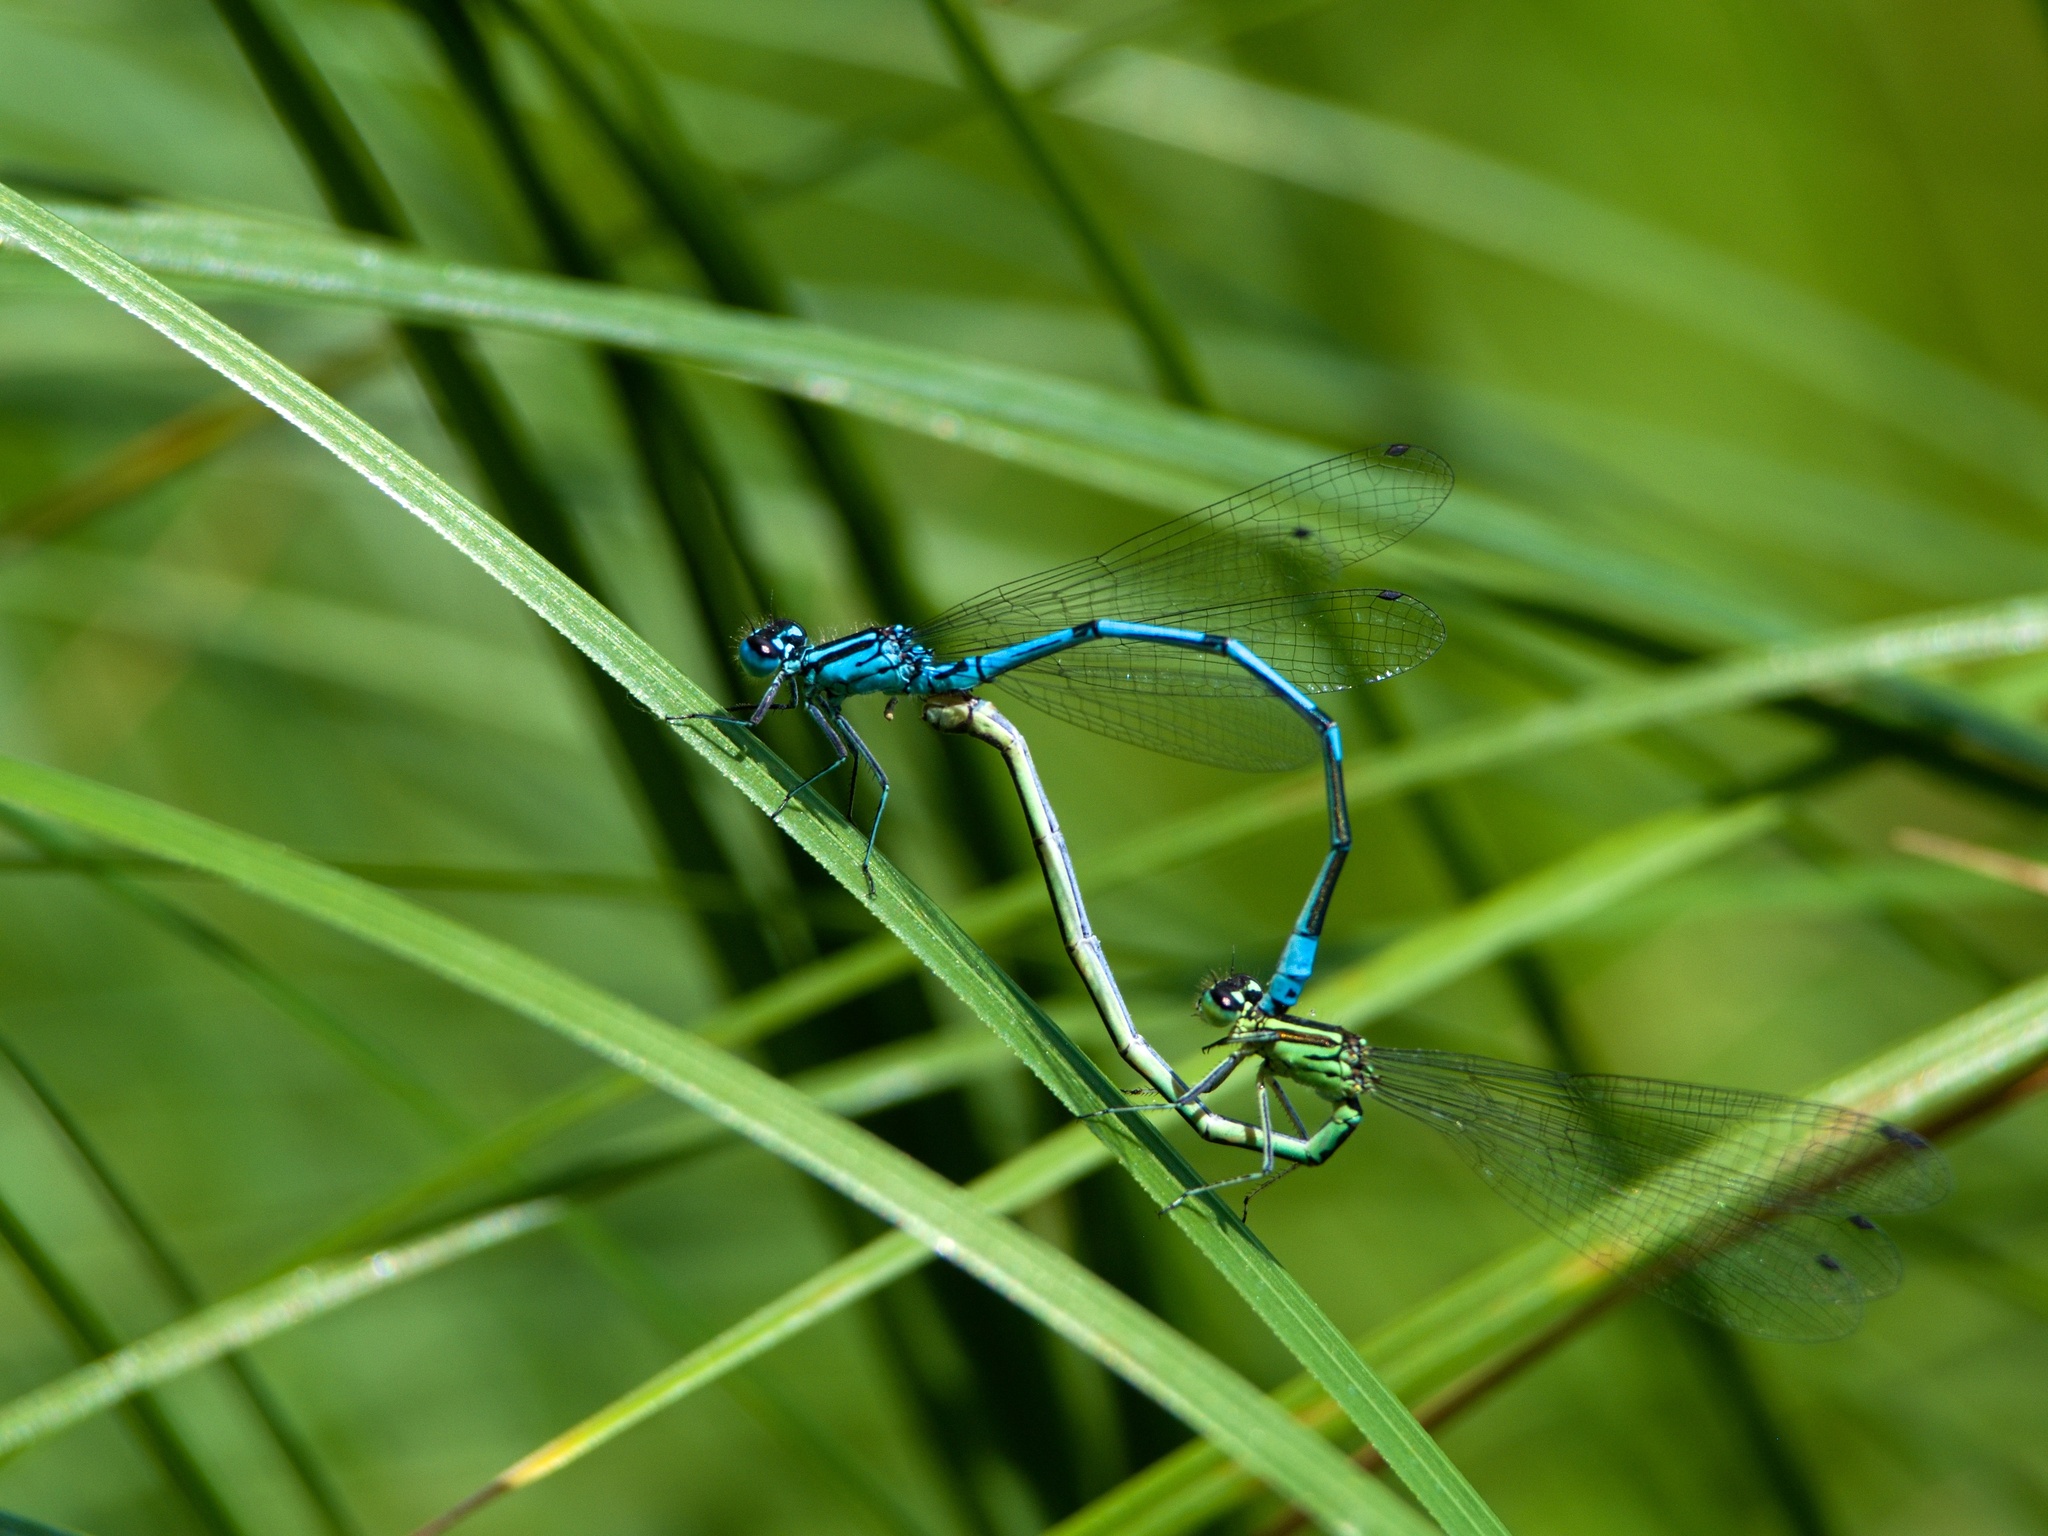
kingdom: Animalia
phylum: Arthropoda
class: Insecta
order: Odonata
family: Coenagrionidae
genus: Coenagrion
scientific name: Coenagrion puella
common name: Azure damselfly
